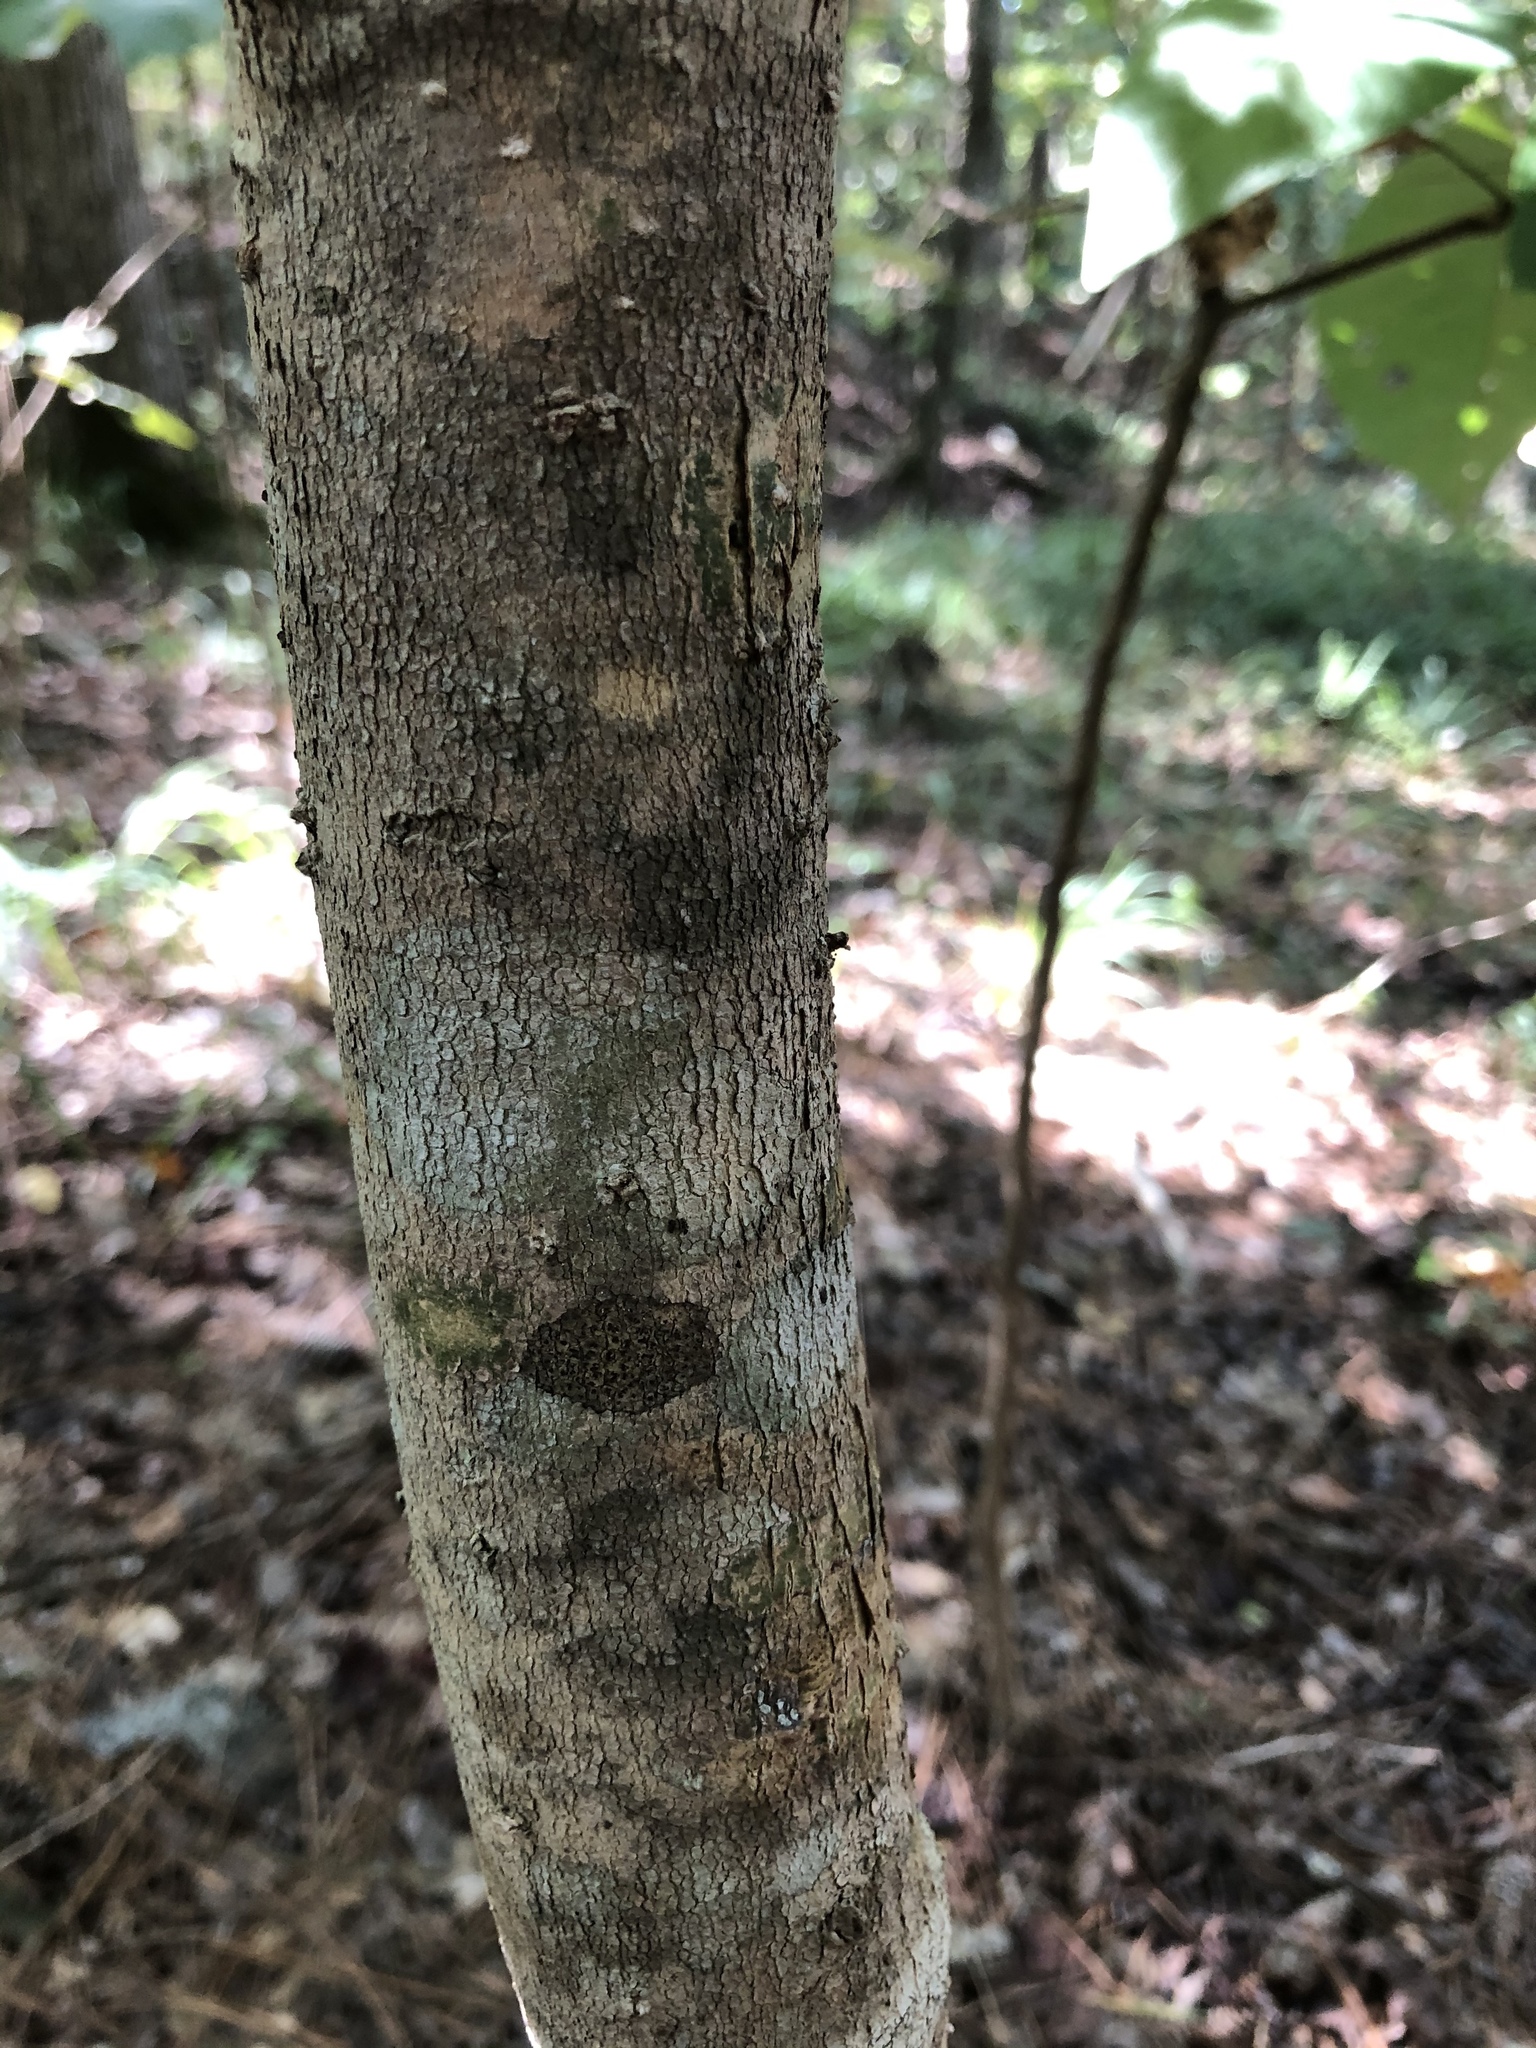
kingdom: Plantae
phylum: Tracheophyta
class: Magnoliopsida
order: Magnoliales
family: Magnoliaceae
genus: Magnolia
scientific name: Magnolia macrophylla
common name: Big-leaf magnolia
